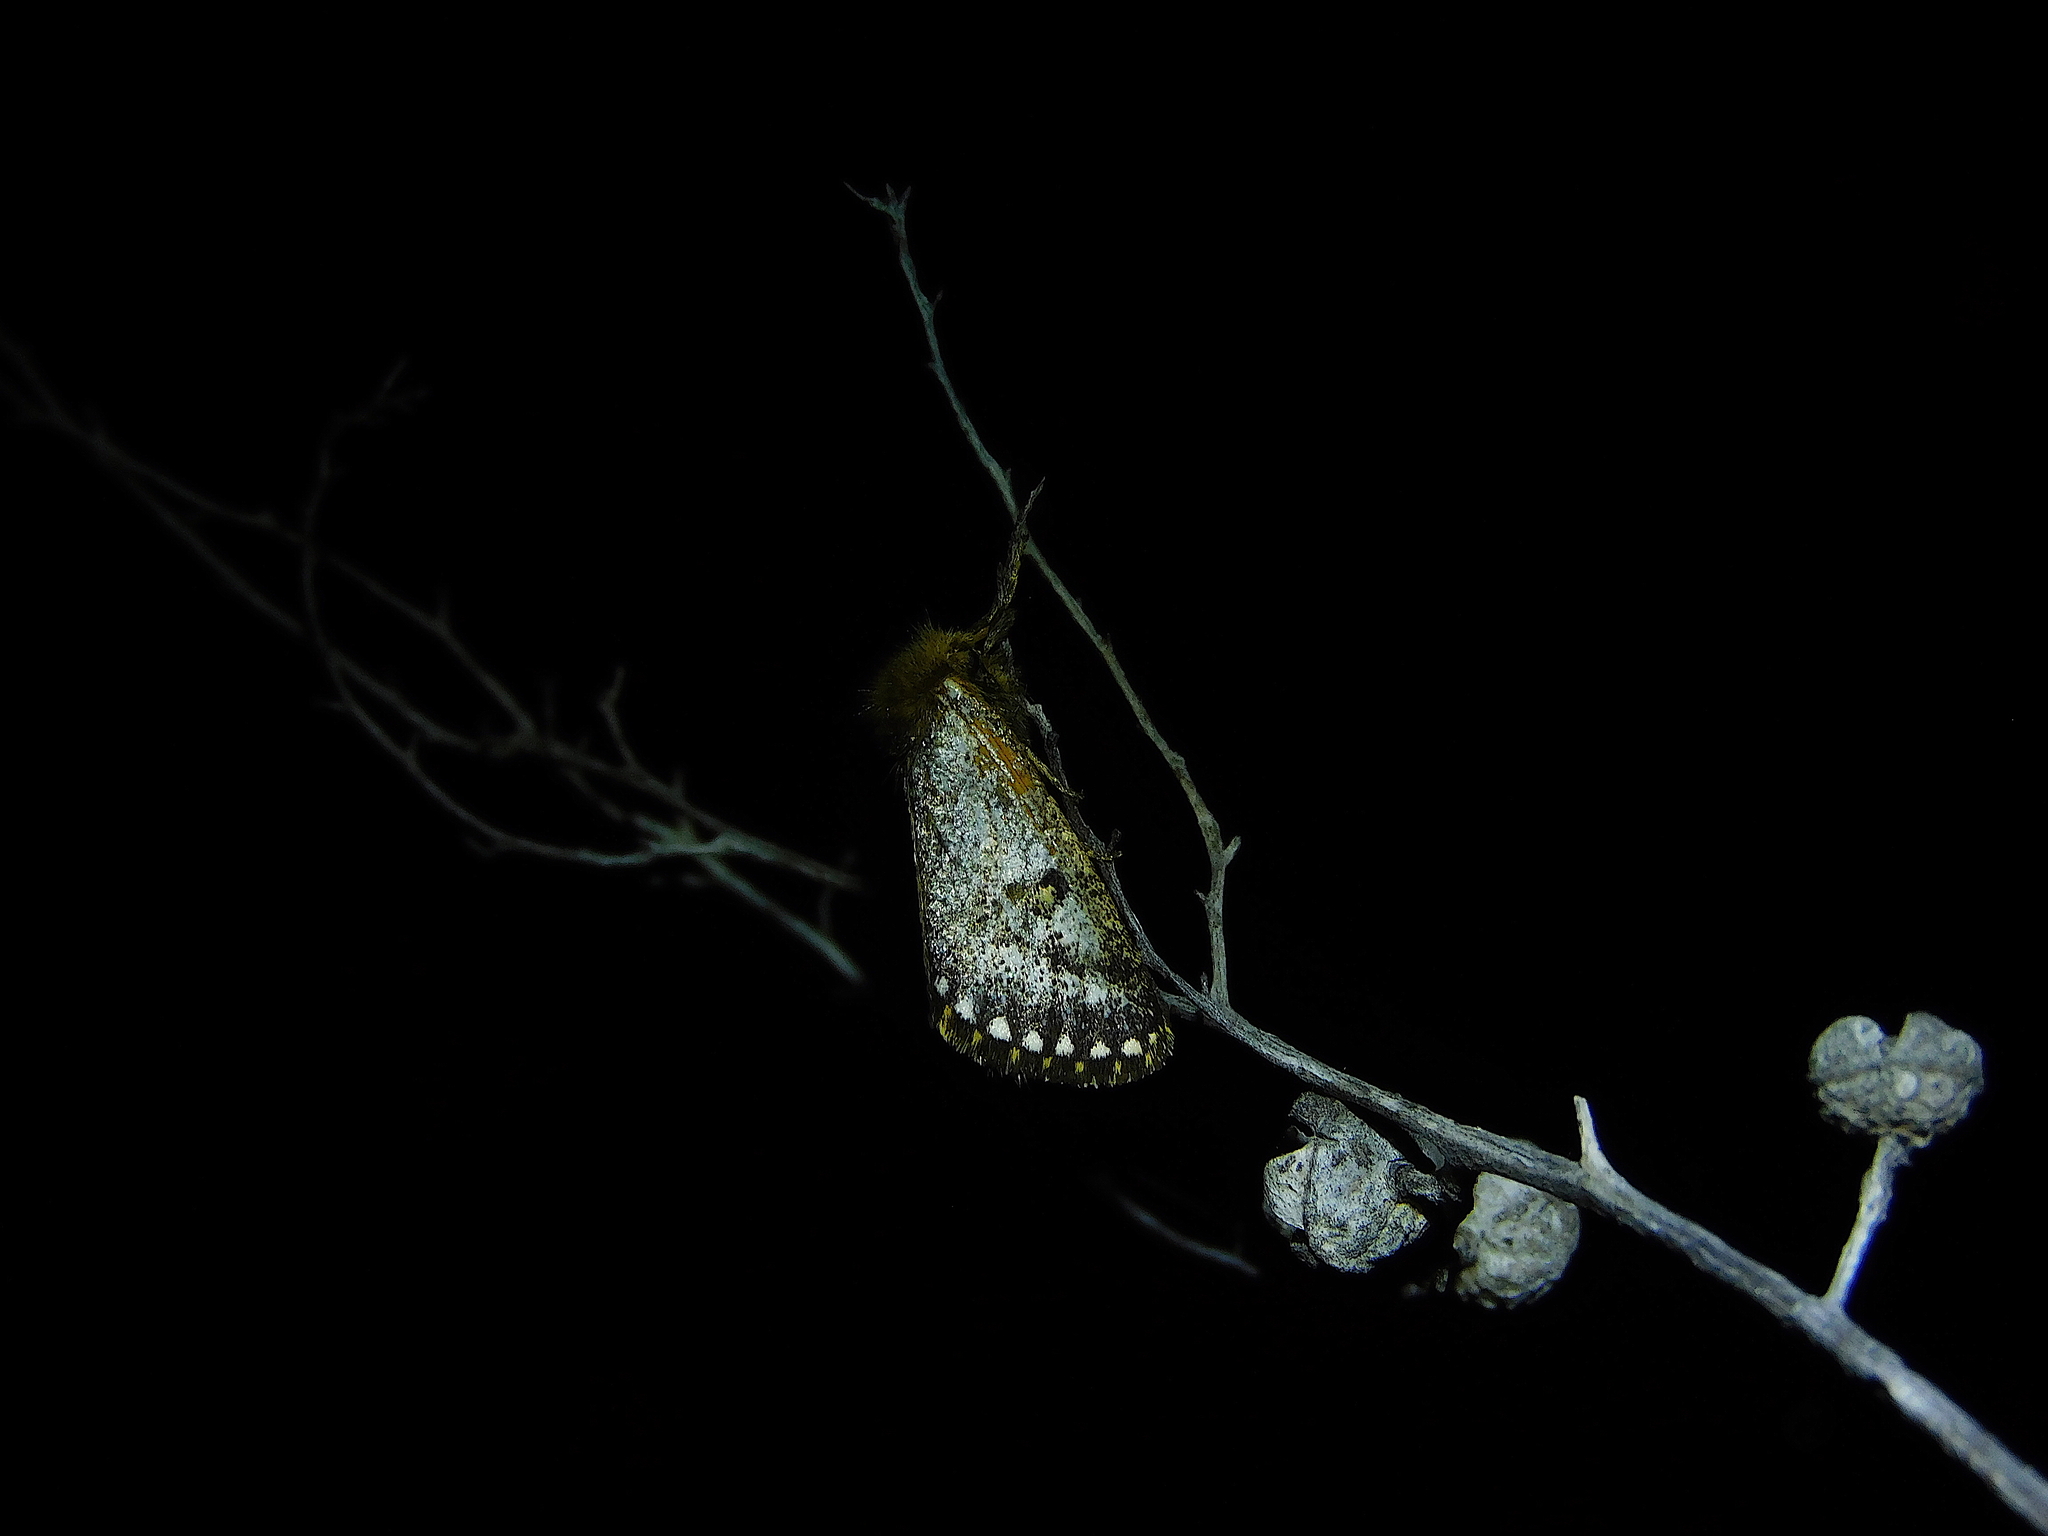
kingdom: Animalia
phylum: Arthropoda
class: Insecta
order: Lepidoptera
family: Notodontidae
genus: Epicoma
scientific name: Epicoma contristis
